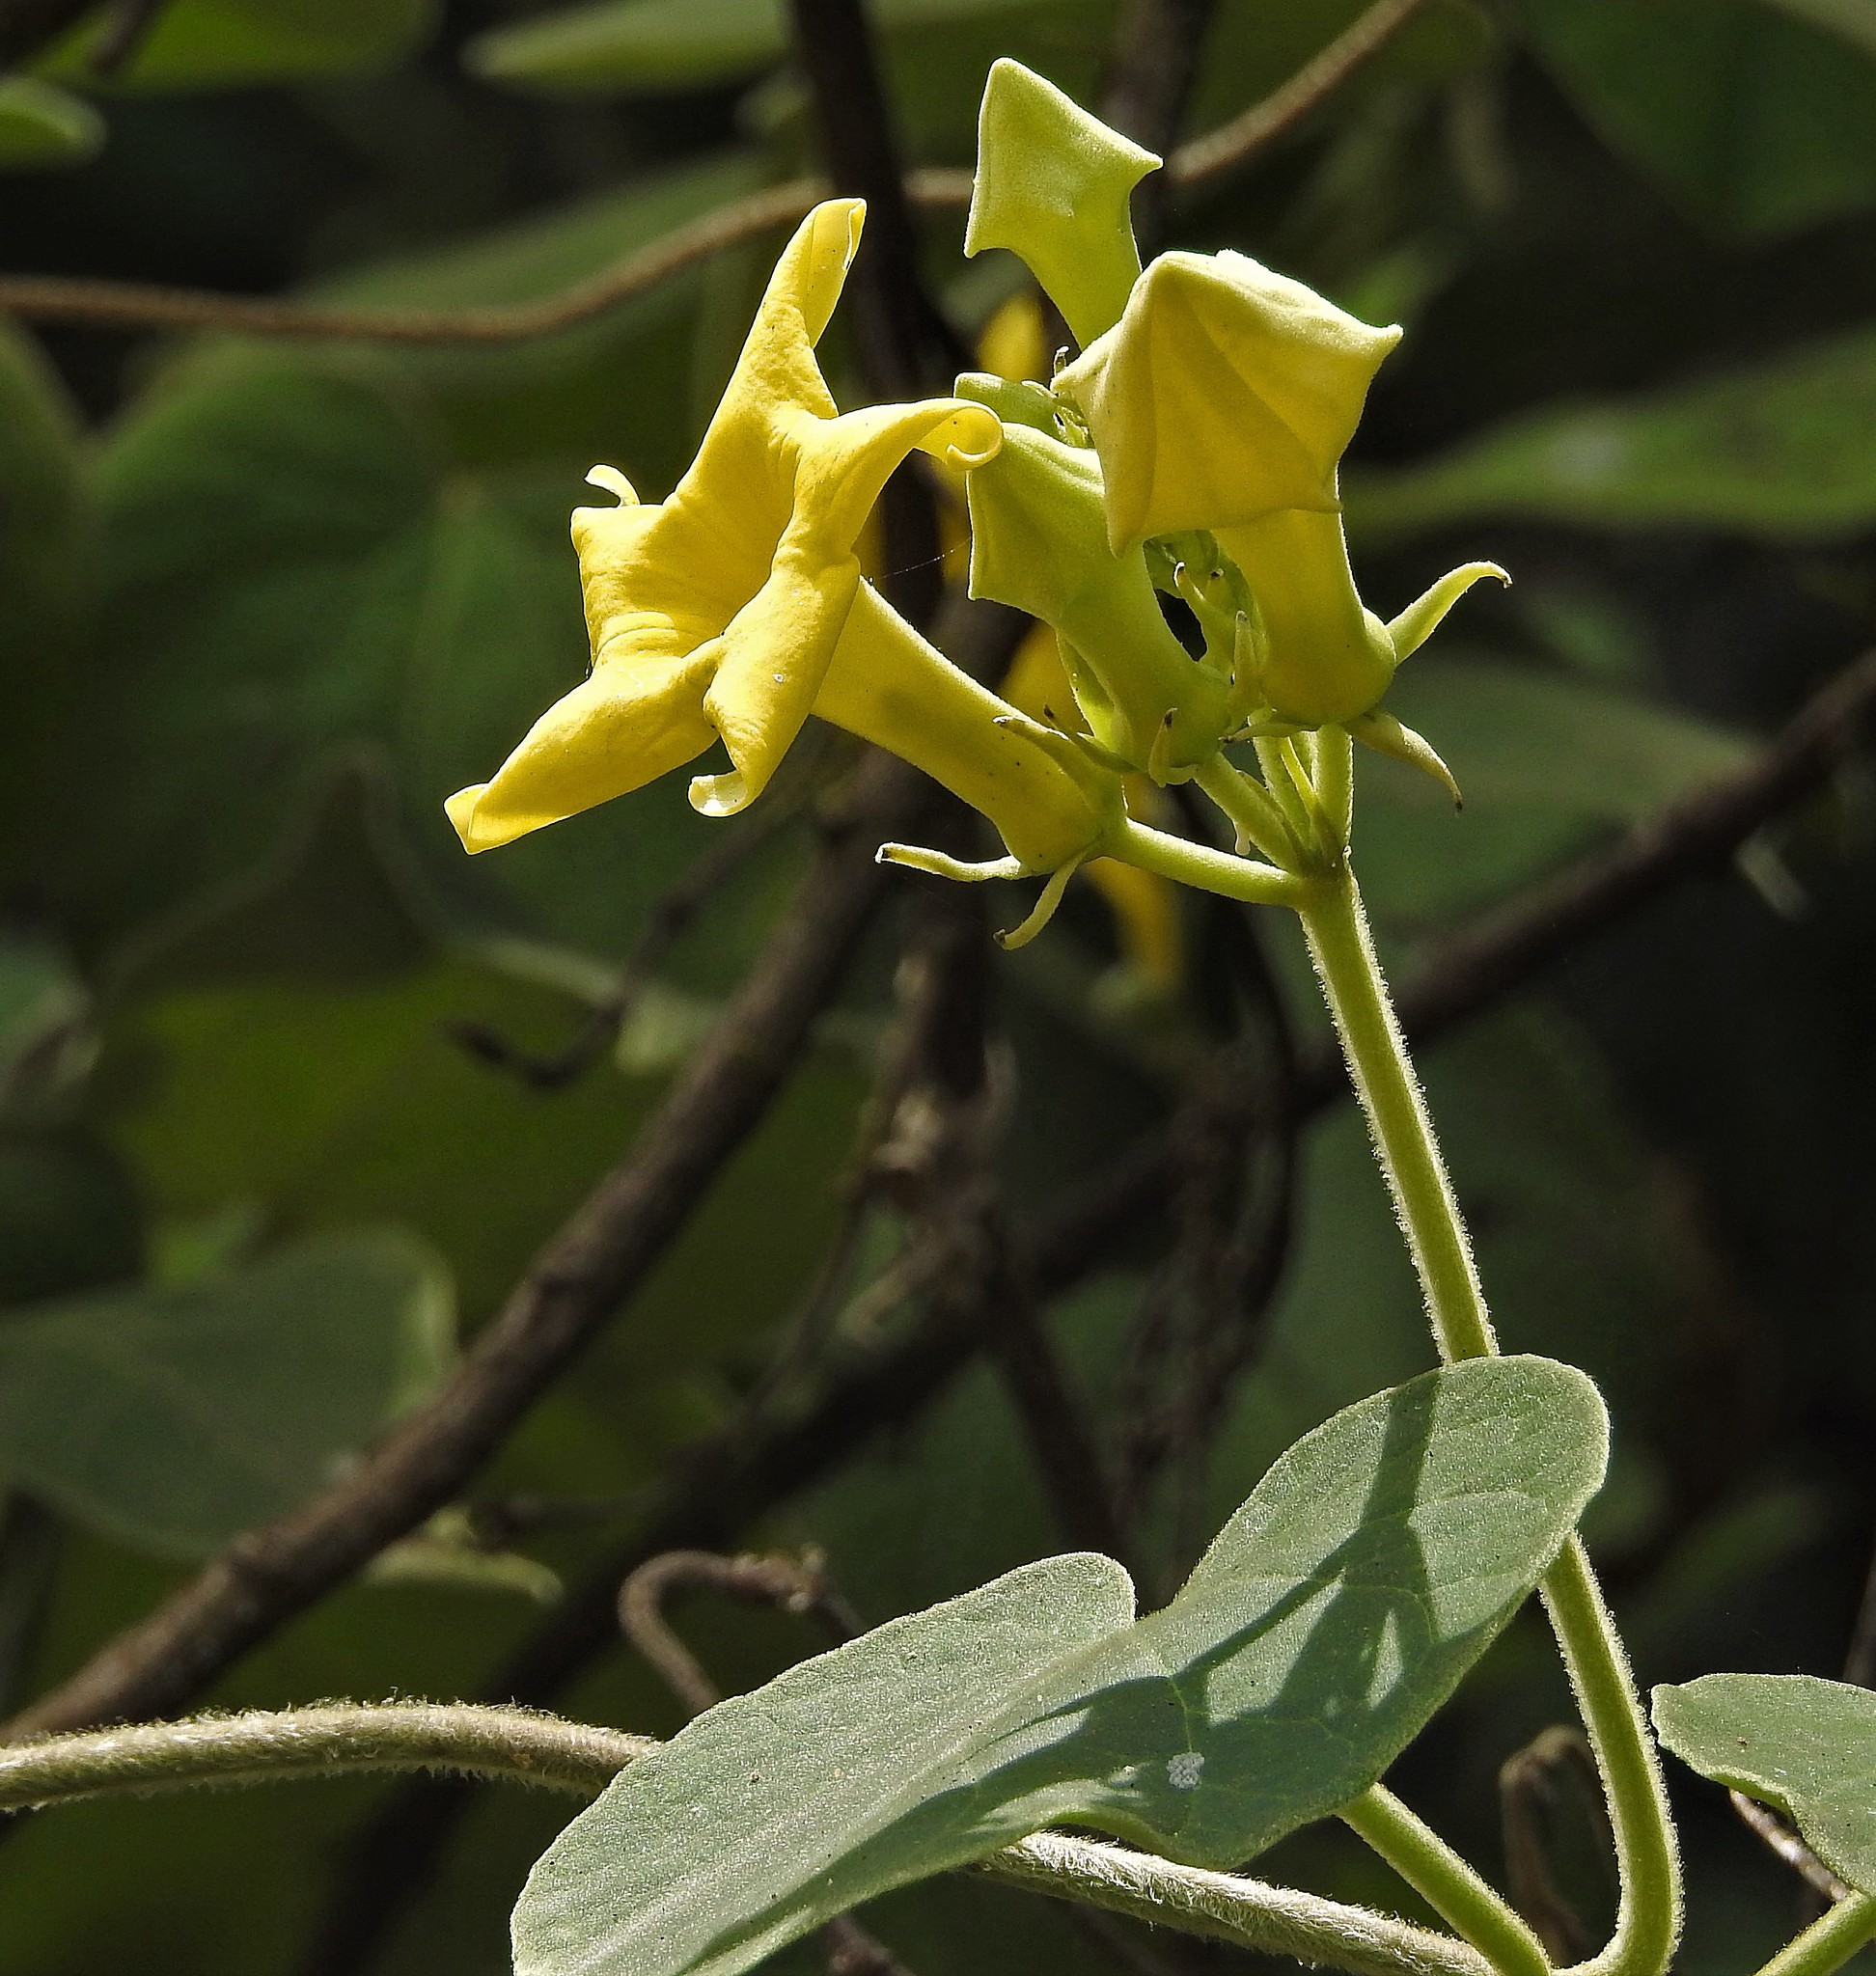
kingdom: Plantae
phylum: Tracheophyta
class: Magnoliopsida
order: Gentianales
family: Apocynaceae
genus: Philibertia
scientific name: Philibertia speciosa
